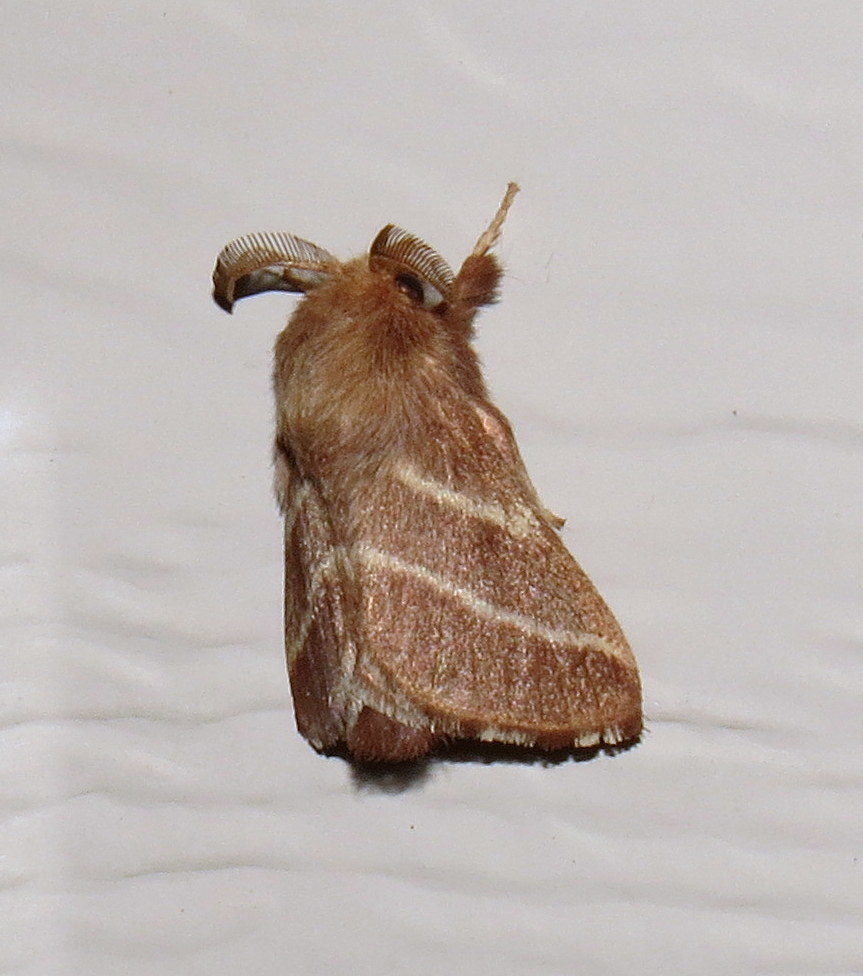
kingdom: Animalia
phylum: Arthropoda
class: Insecta
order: Lepidoptera
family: Lasiocampidae
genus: Malacosoma
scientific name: Malacosoma americana
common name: Eastern tent caterpillar moth
